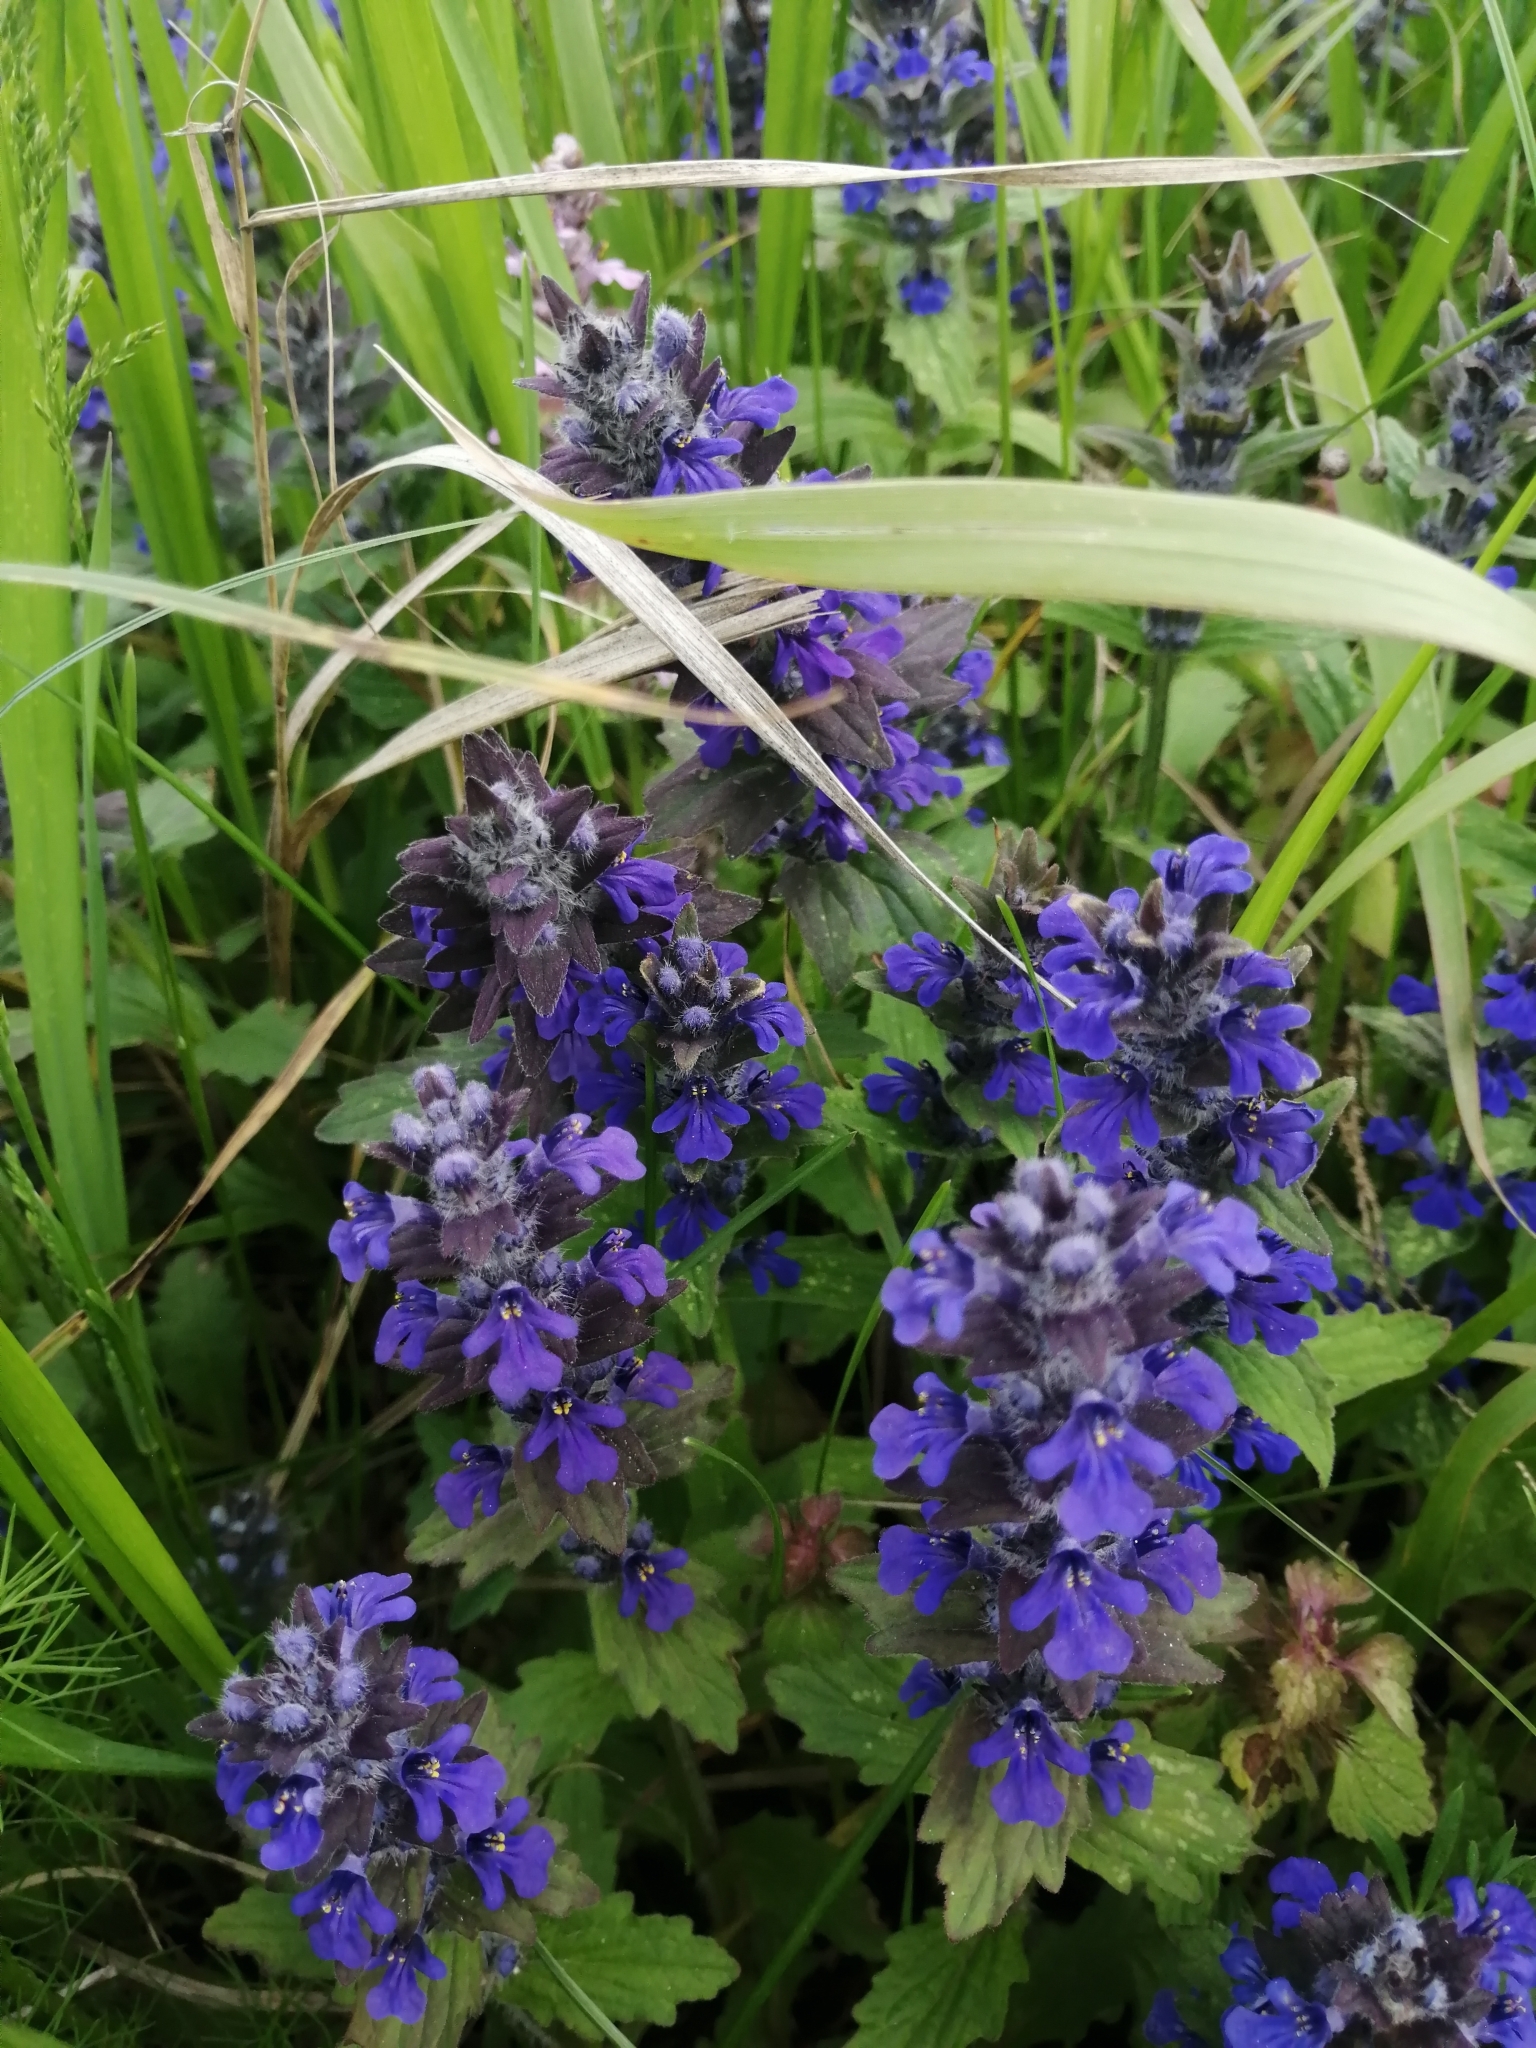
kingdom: Plantae
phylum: Tracheophyta
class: Magnoliopsida
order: Lamiales
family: Lamiaceae
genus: Ajuga
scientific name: Ajuga genevensis
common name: Blue bugle
